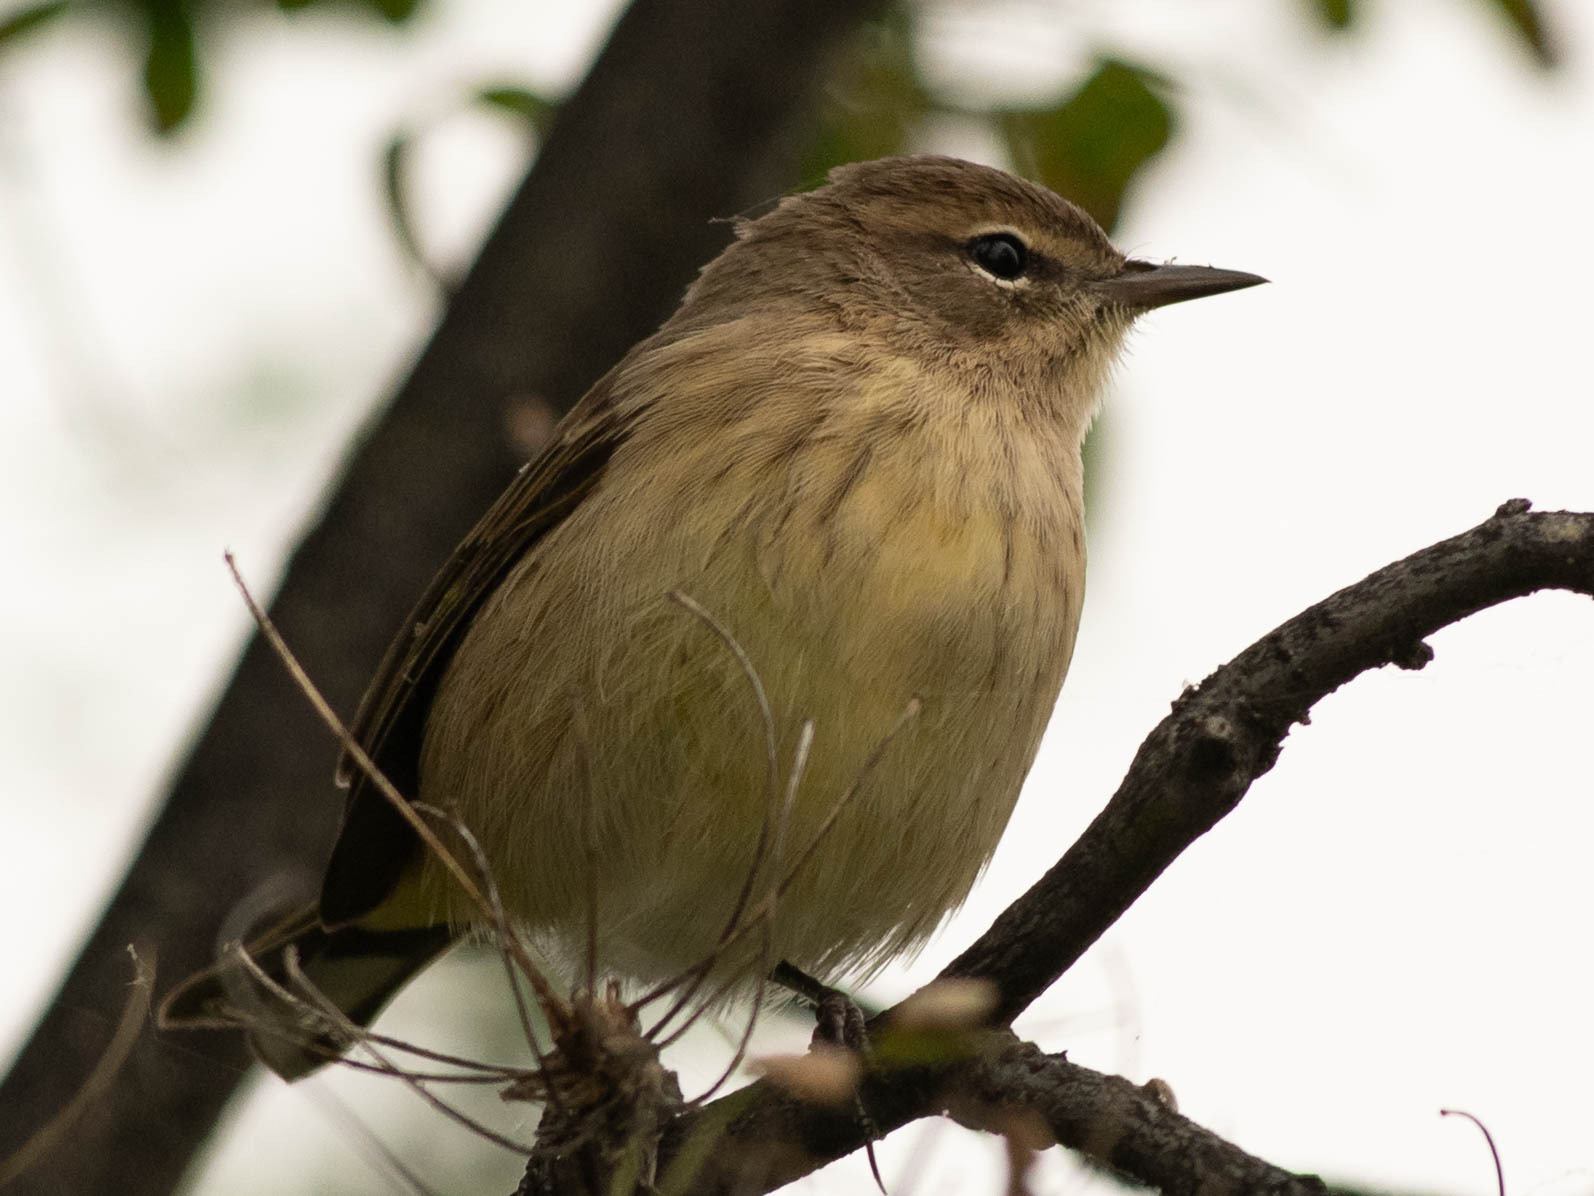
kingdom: Animalia
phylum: Chordata
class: Aves
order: Passeriformes
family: Parulidae
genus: Setophaga
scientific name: Setophaga coronata
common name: Myrtle warbler
